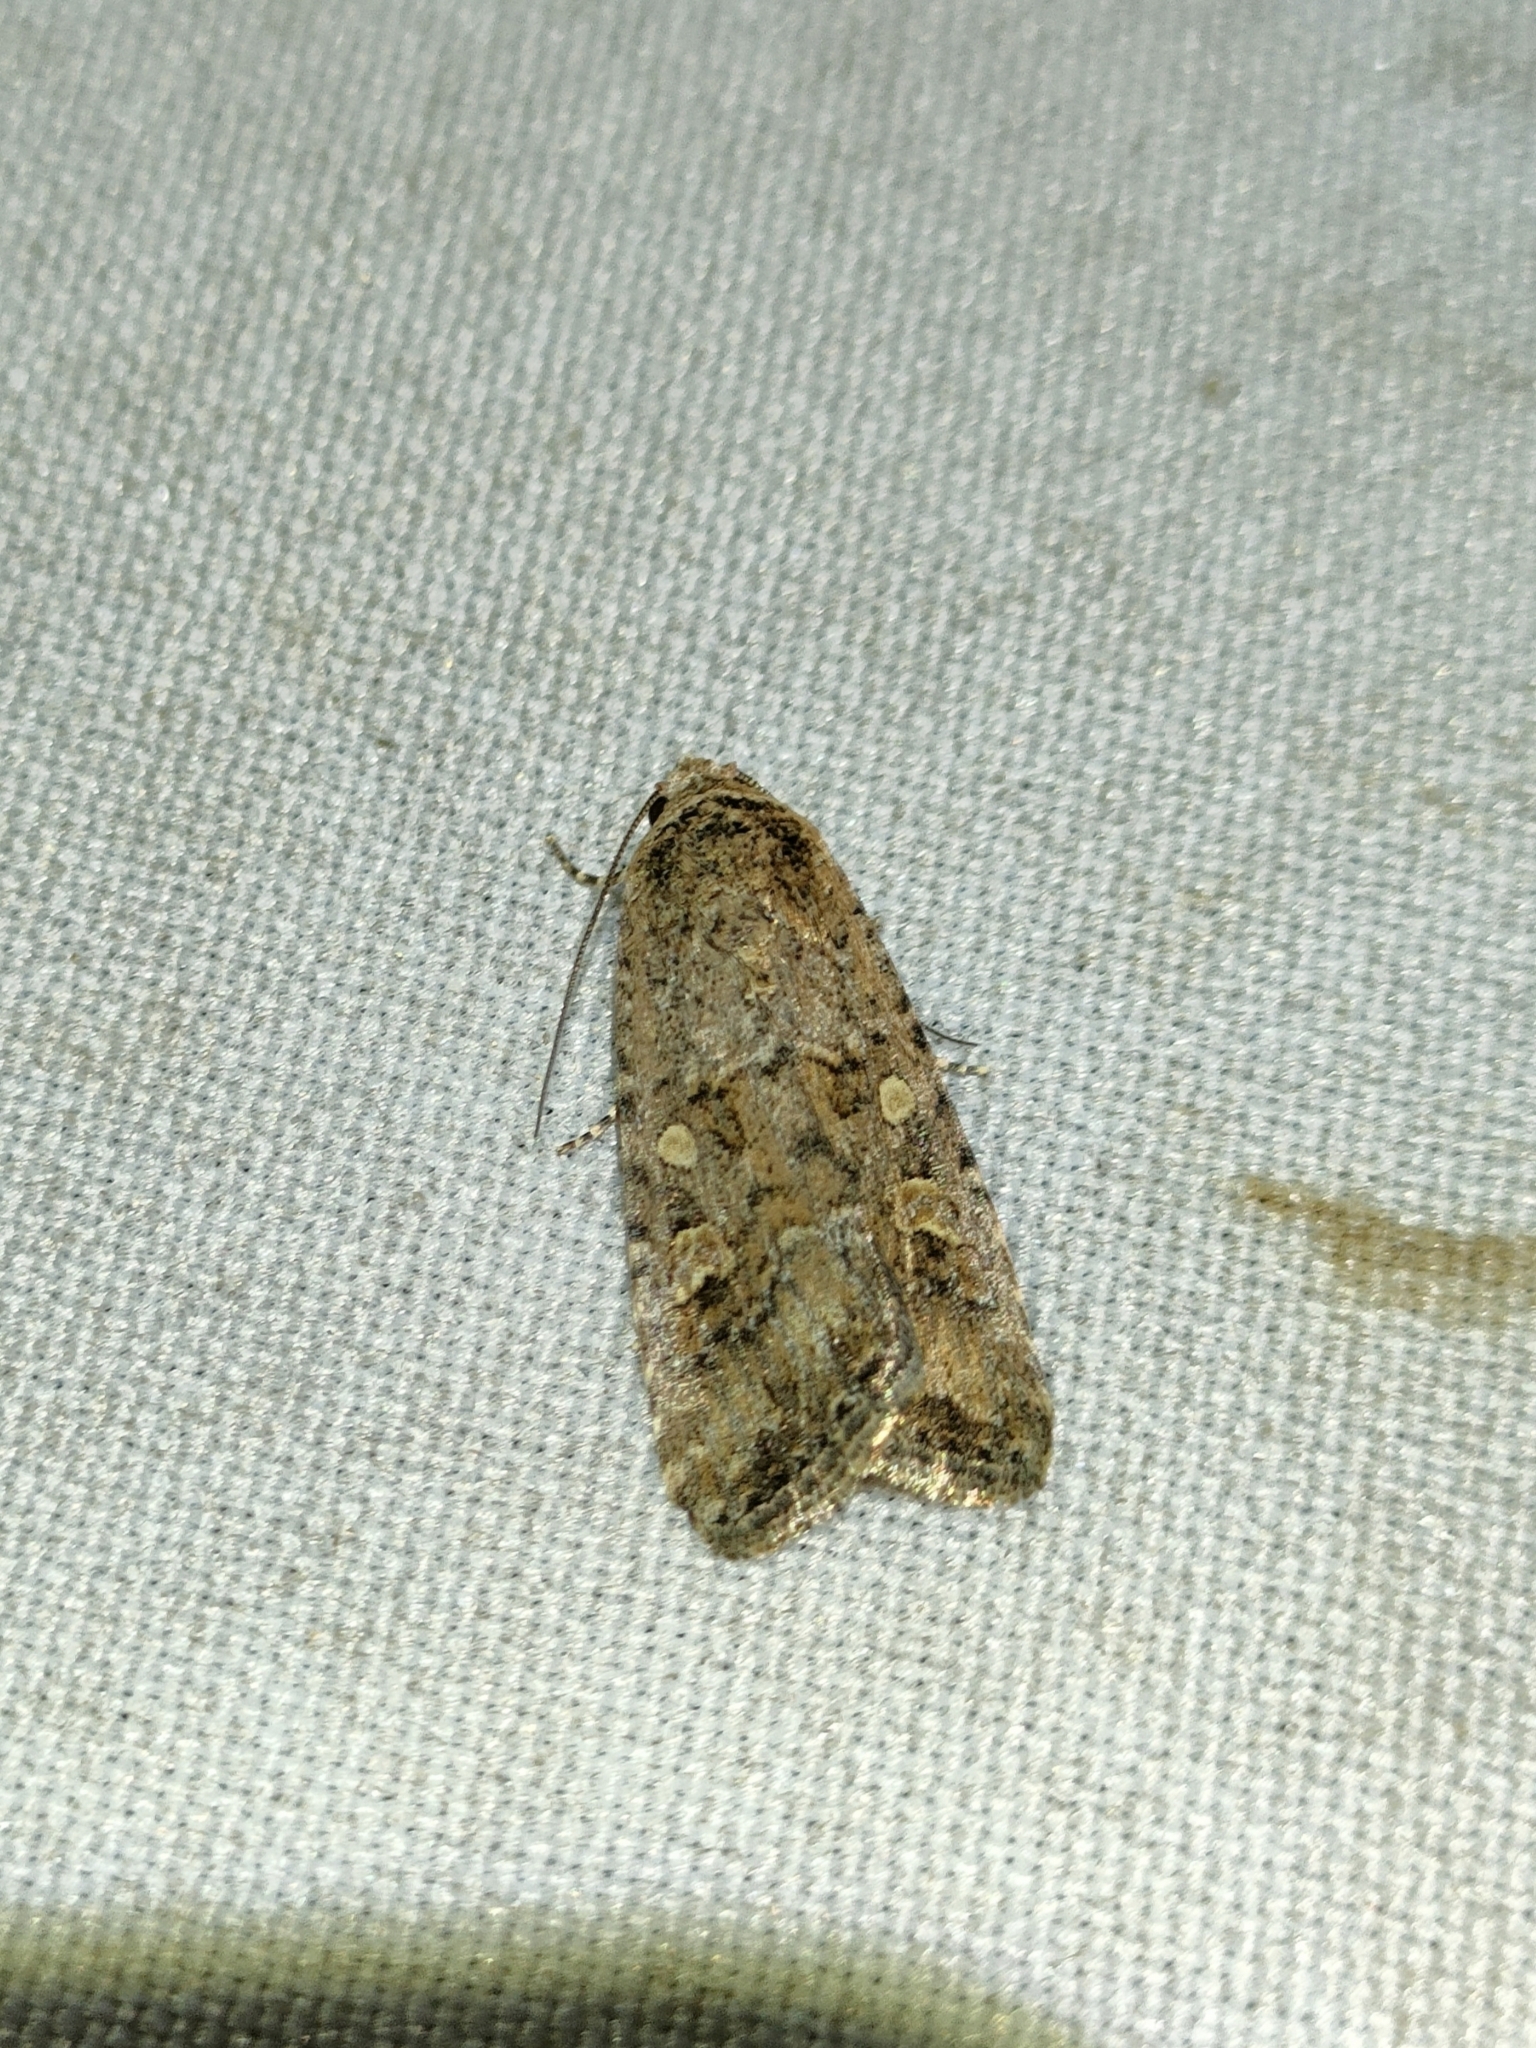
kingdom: Animalia
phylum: Arthropoda
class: Insecta
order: Lepidoptera
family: Noctuidae
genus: Spodoptera
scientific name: Spodoptera exigua
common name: Beet armyworm
